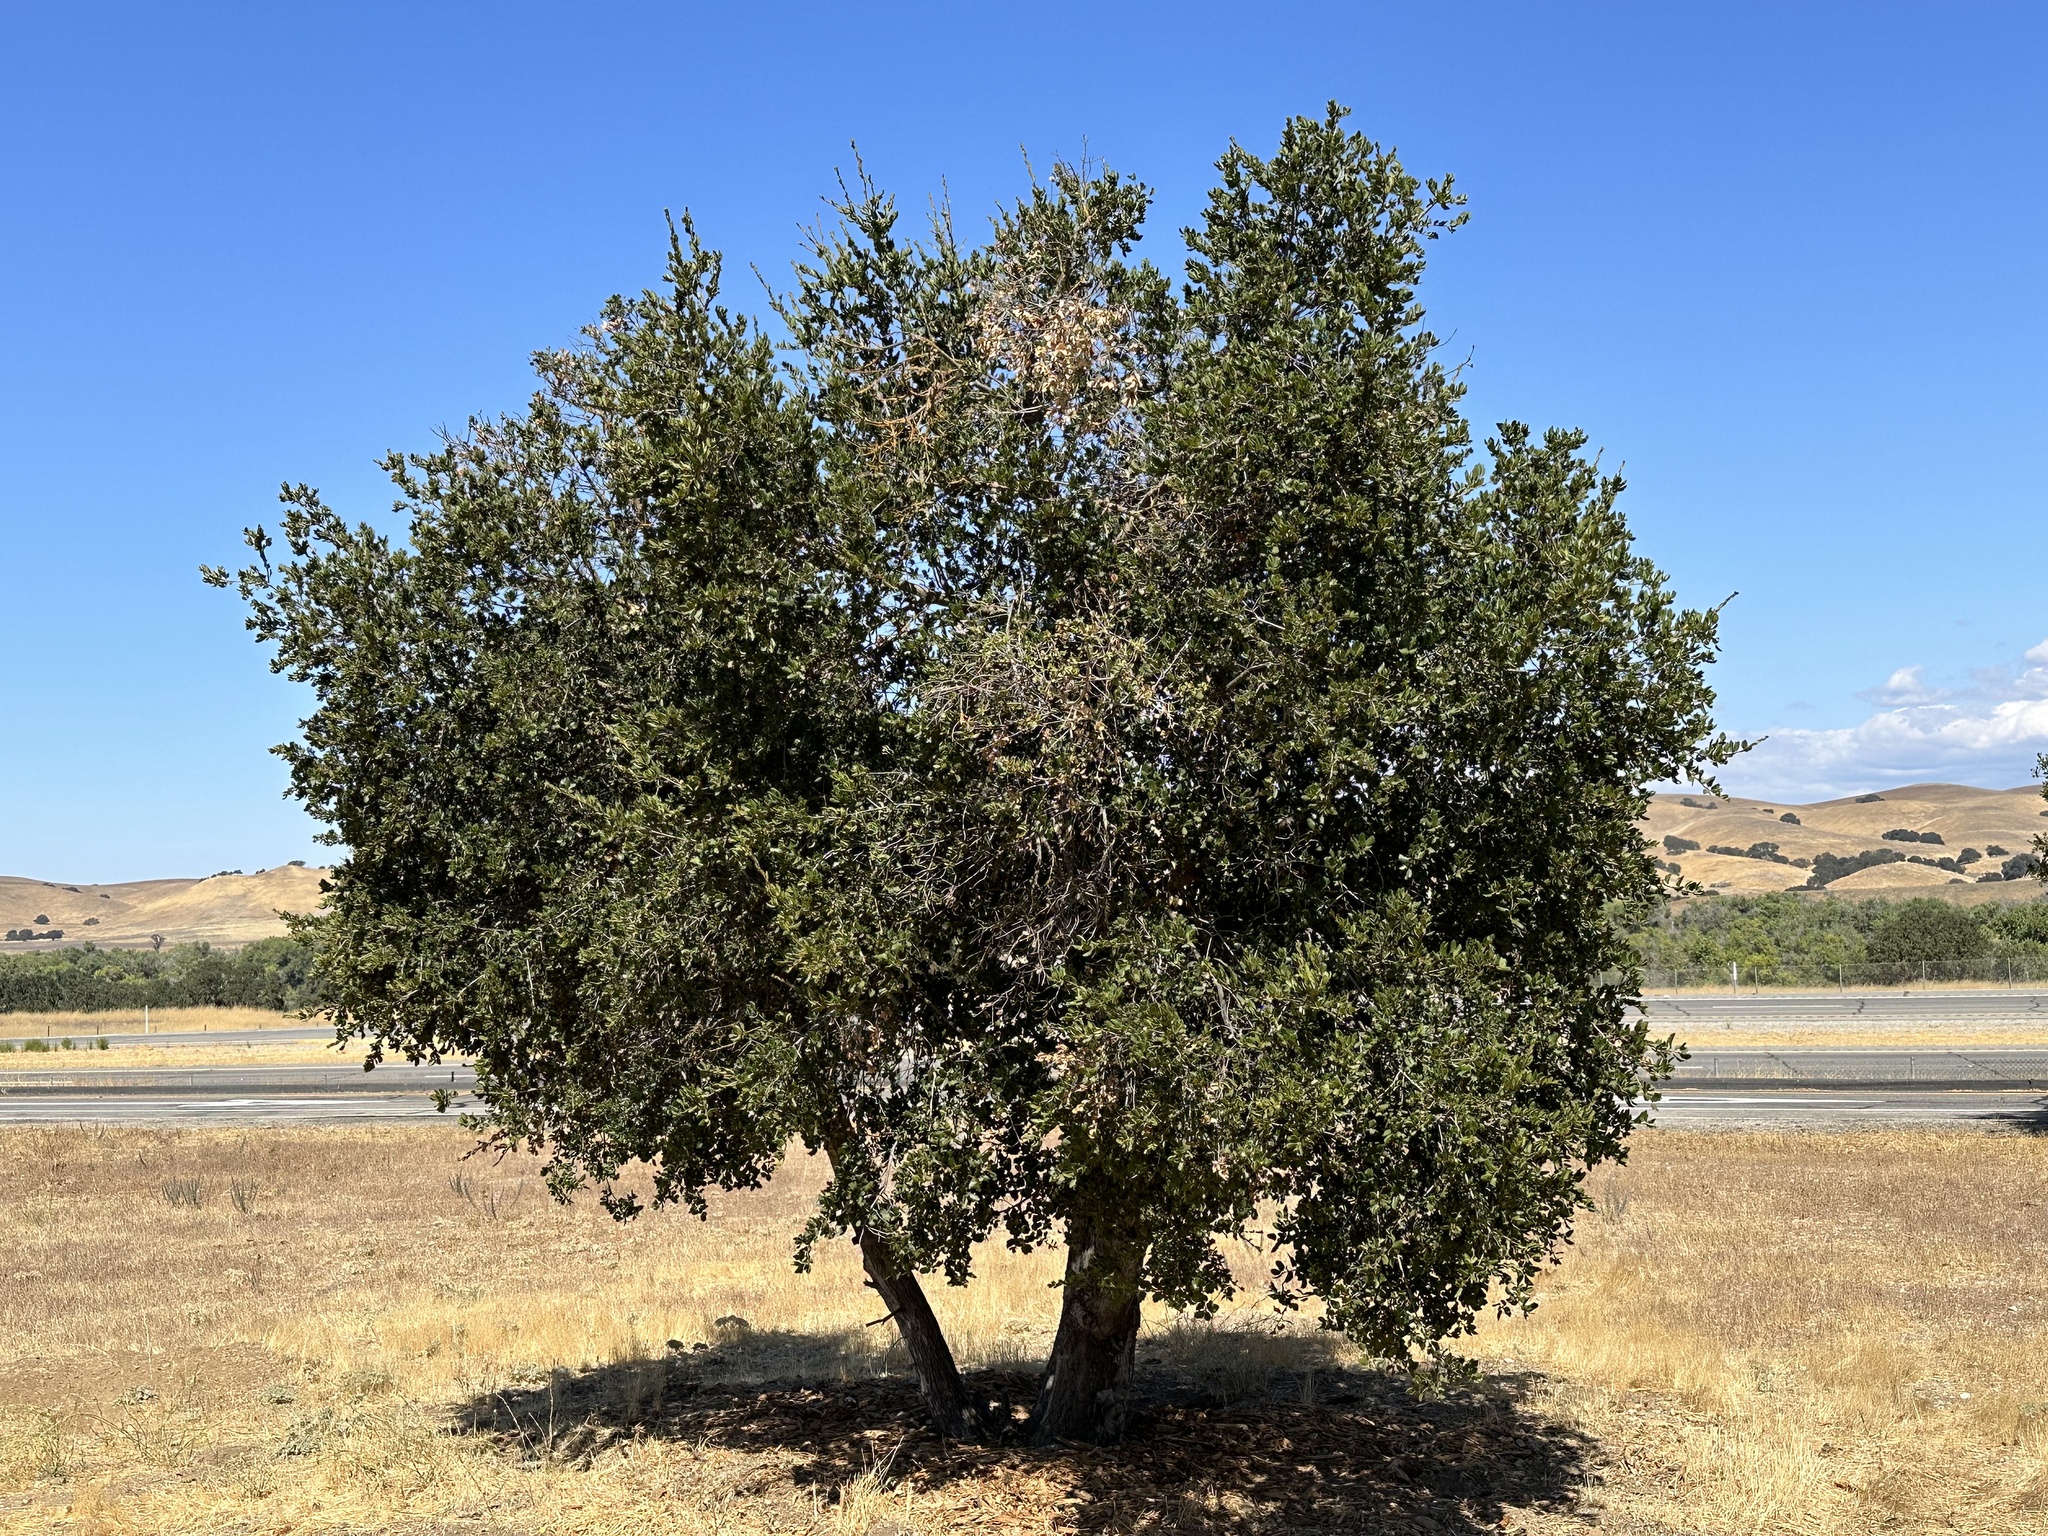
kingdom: Plantae
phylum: Tracheophyta
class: Magnoliopsida
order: Fagales
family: Fagaceae
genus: Quercus
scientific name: Quercus agrifolia
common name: California live oak
